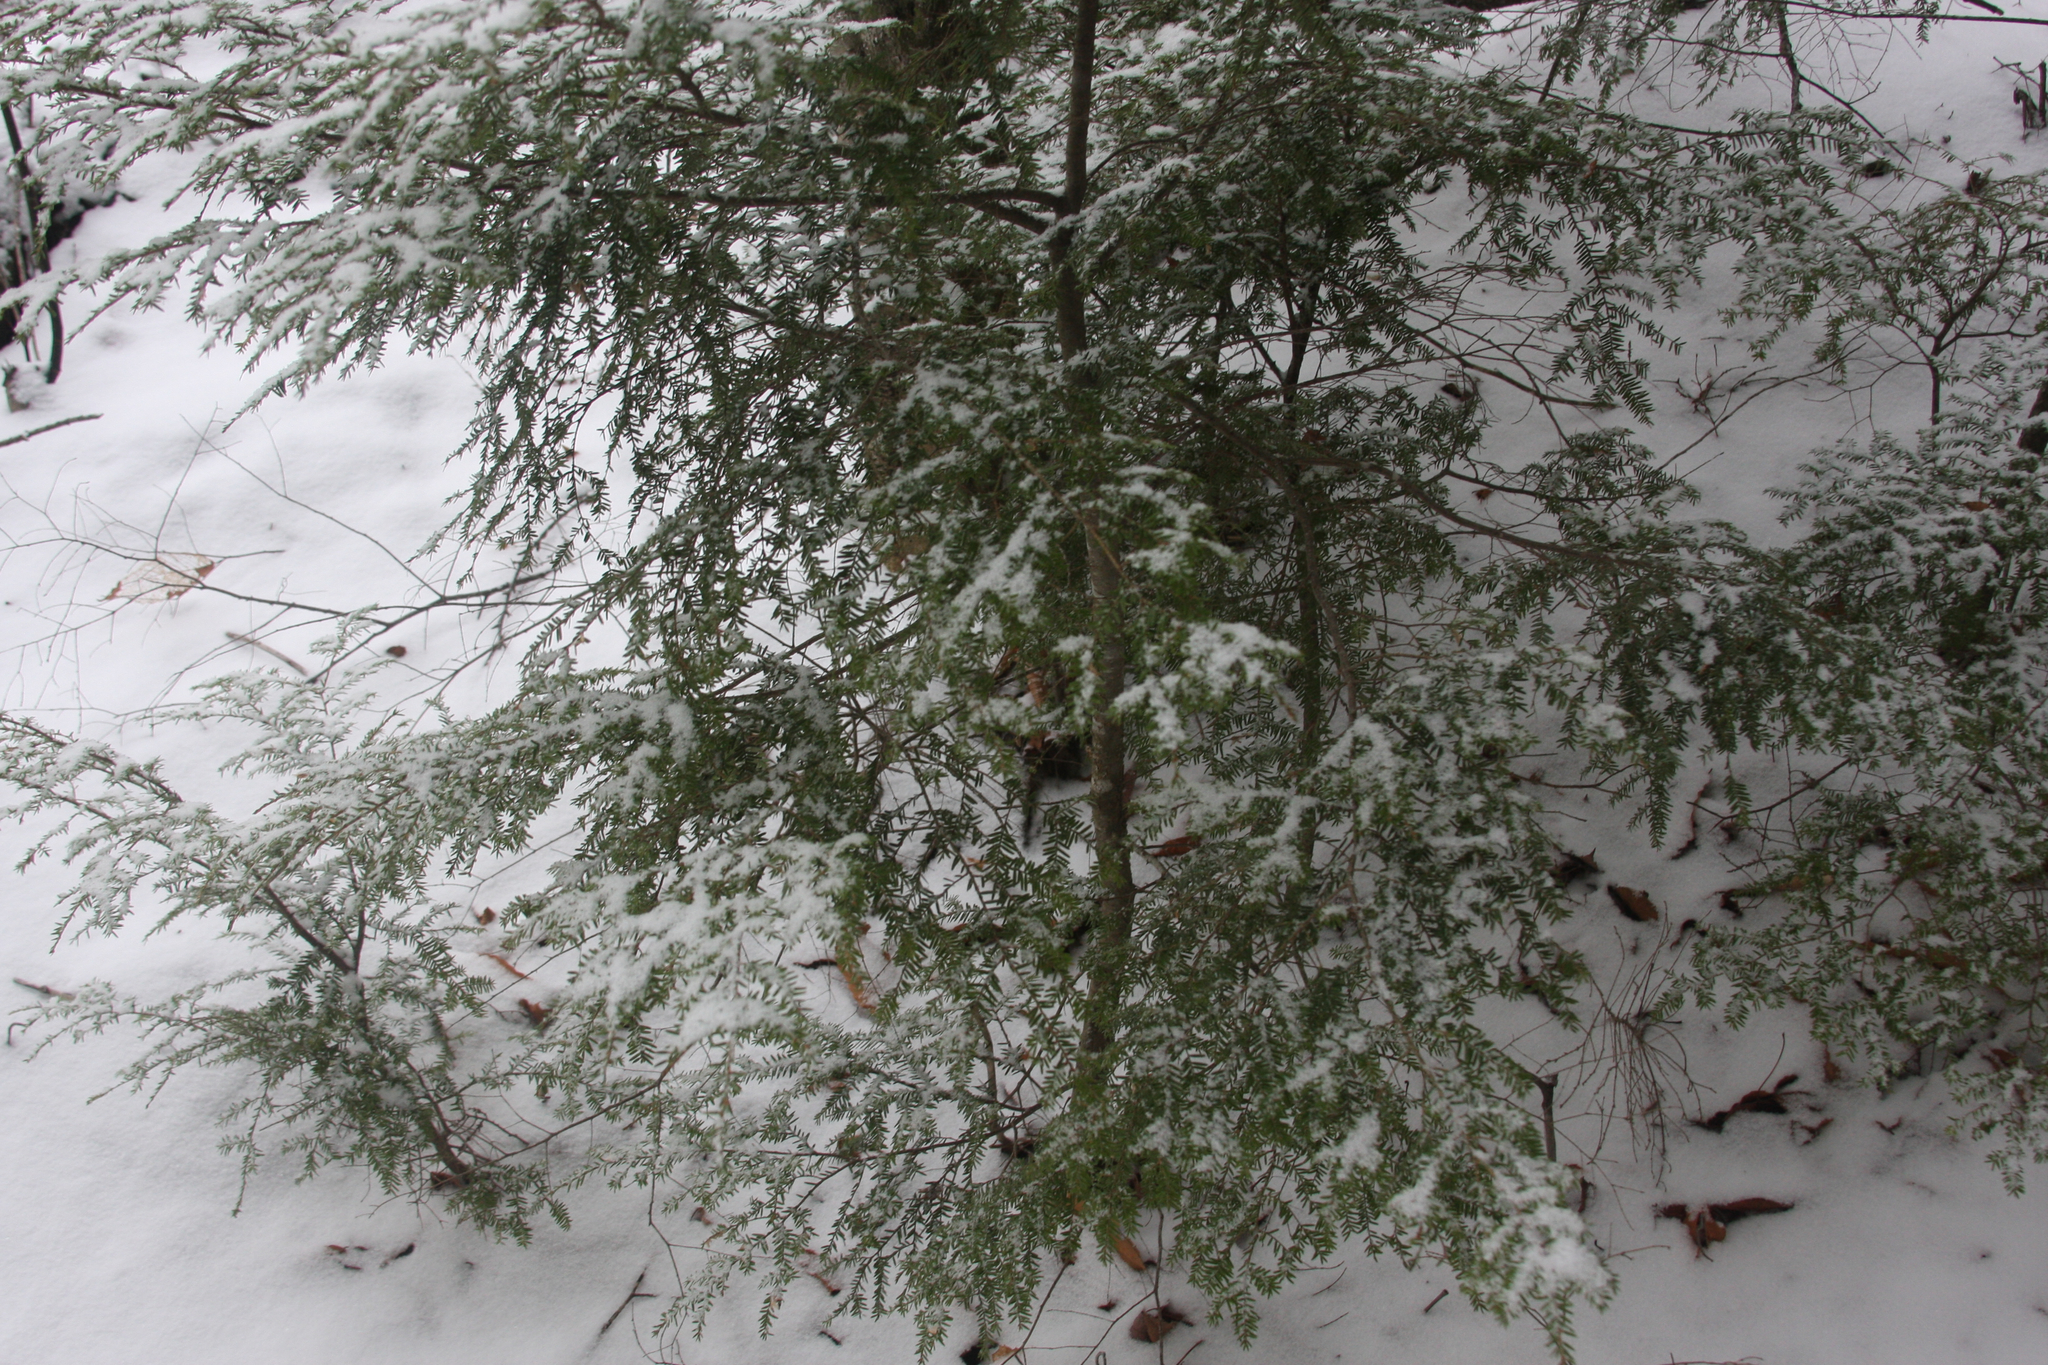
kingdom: Plantae
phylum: Tracheophyta
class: Pinopsida
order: Pinales
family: Pinaceae
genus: Tsuga
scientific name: Tsuga canadensis
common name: Eastern hemlock
